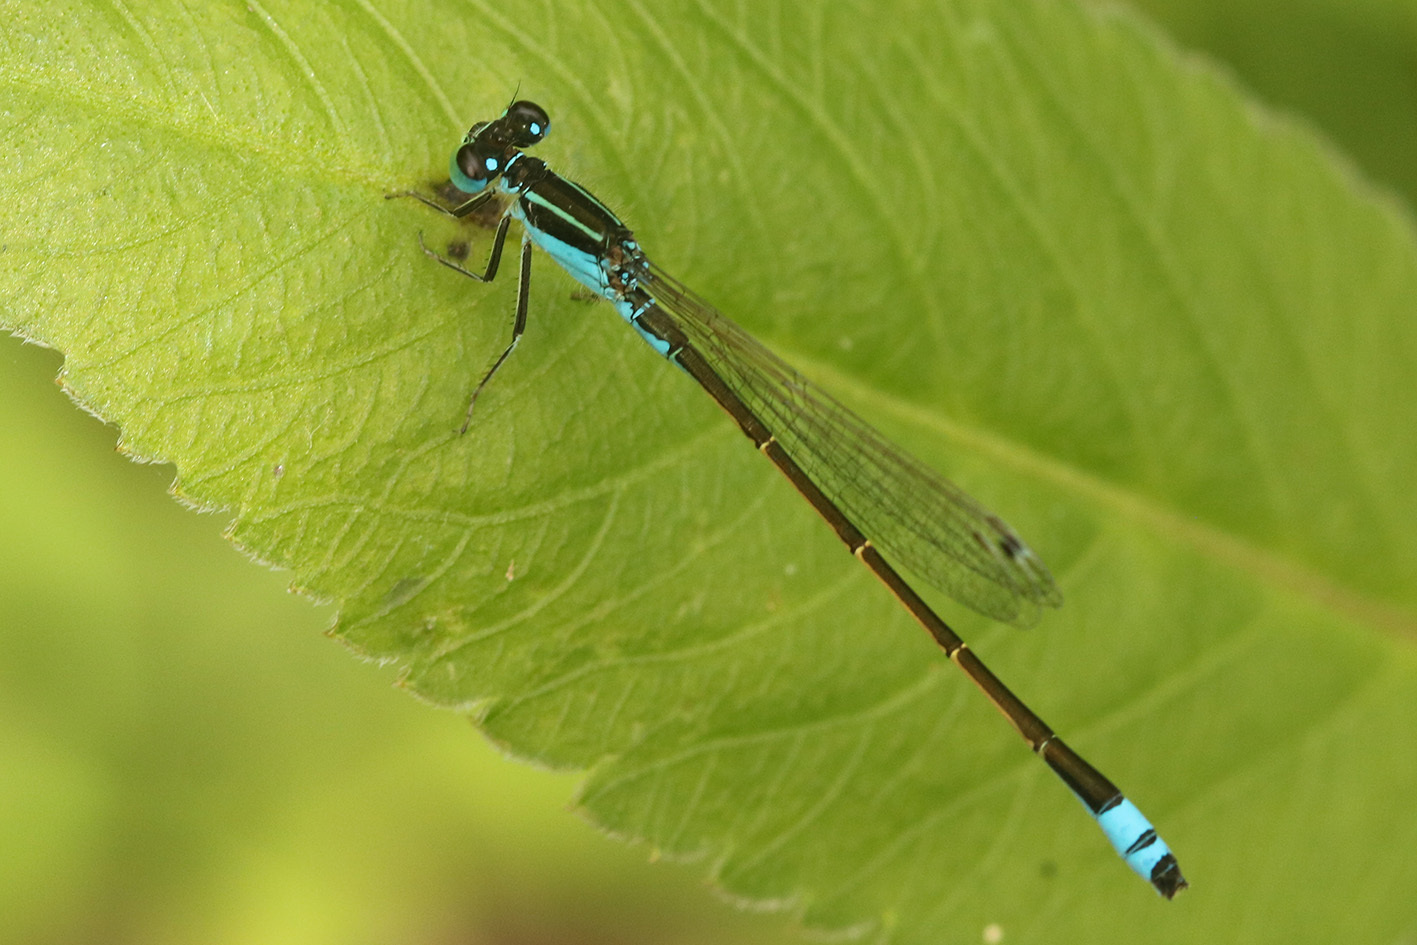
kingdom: Animalia
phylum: Arthropoda
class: Insecta
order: Odonata
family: Coenagrionidae
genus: Ischnura
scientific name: Ischnura fluviatilis
